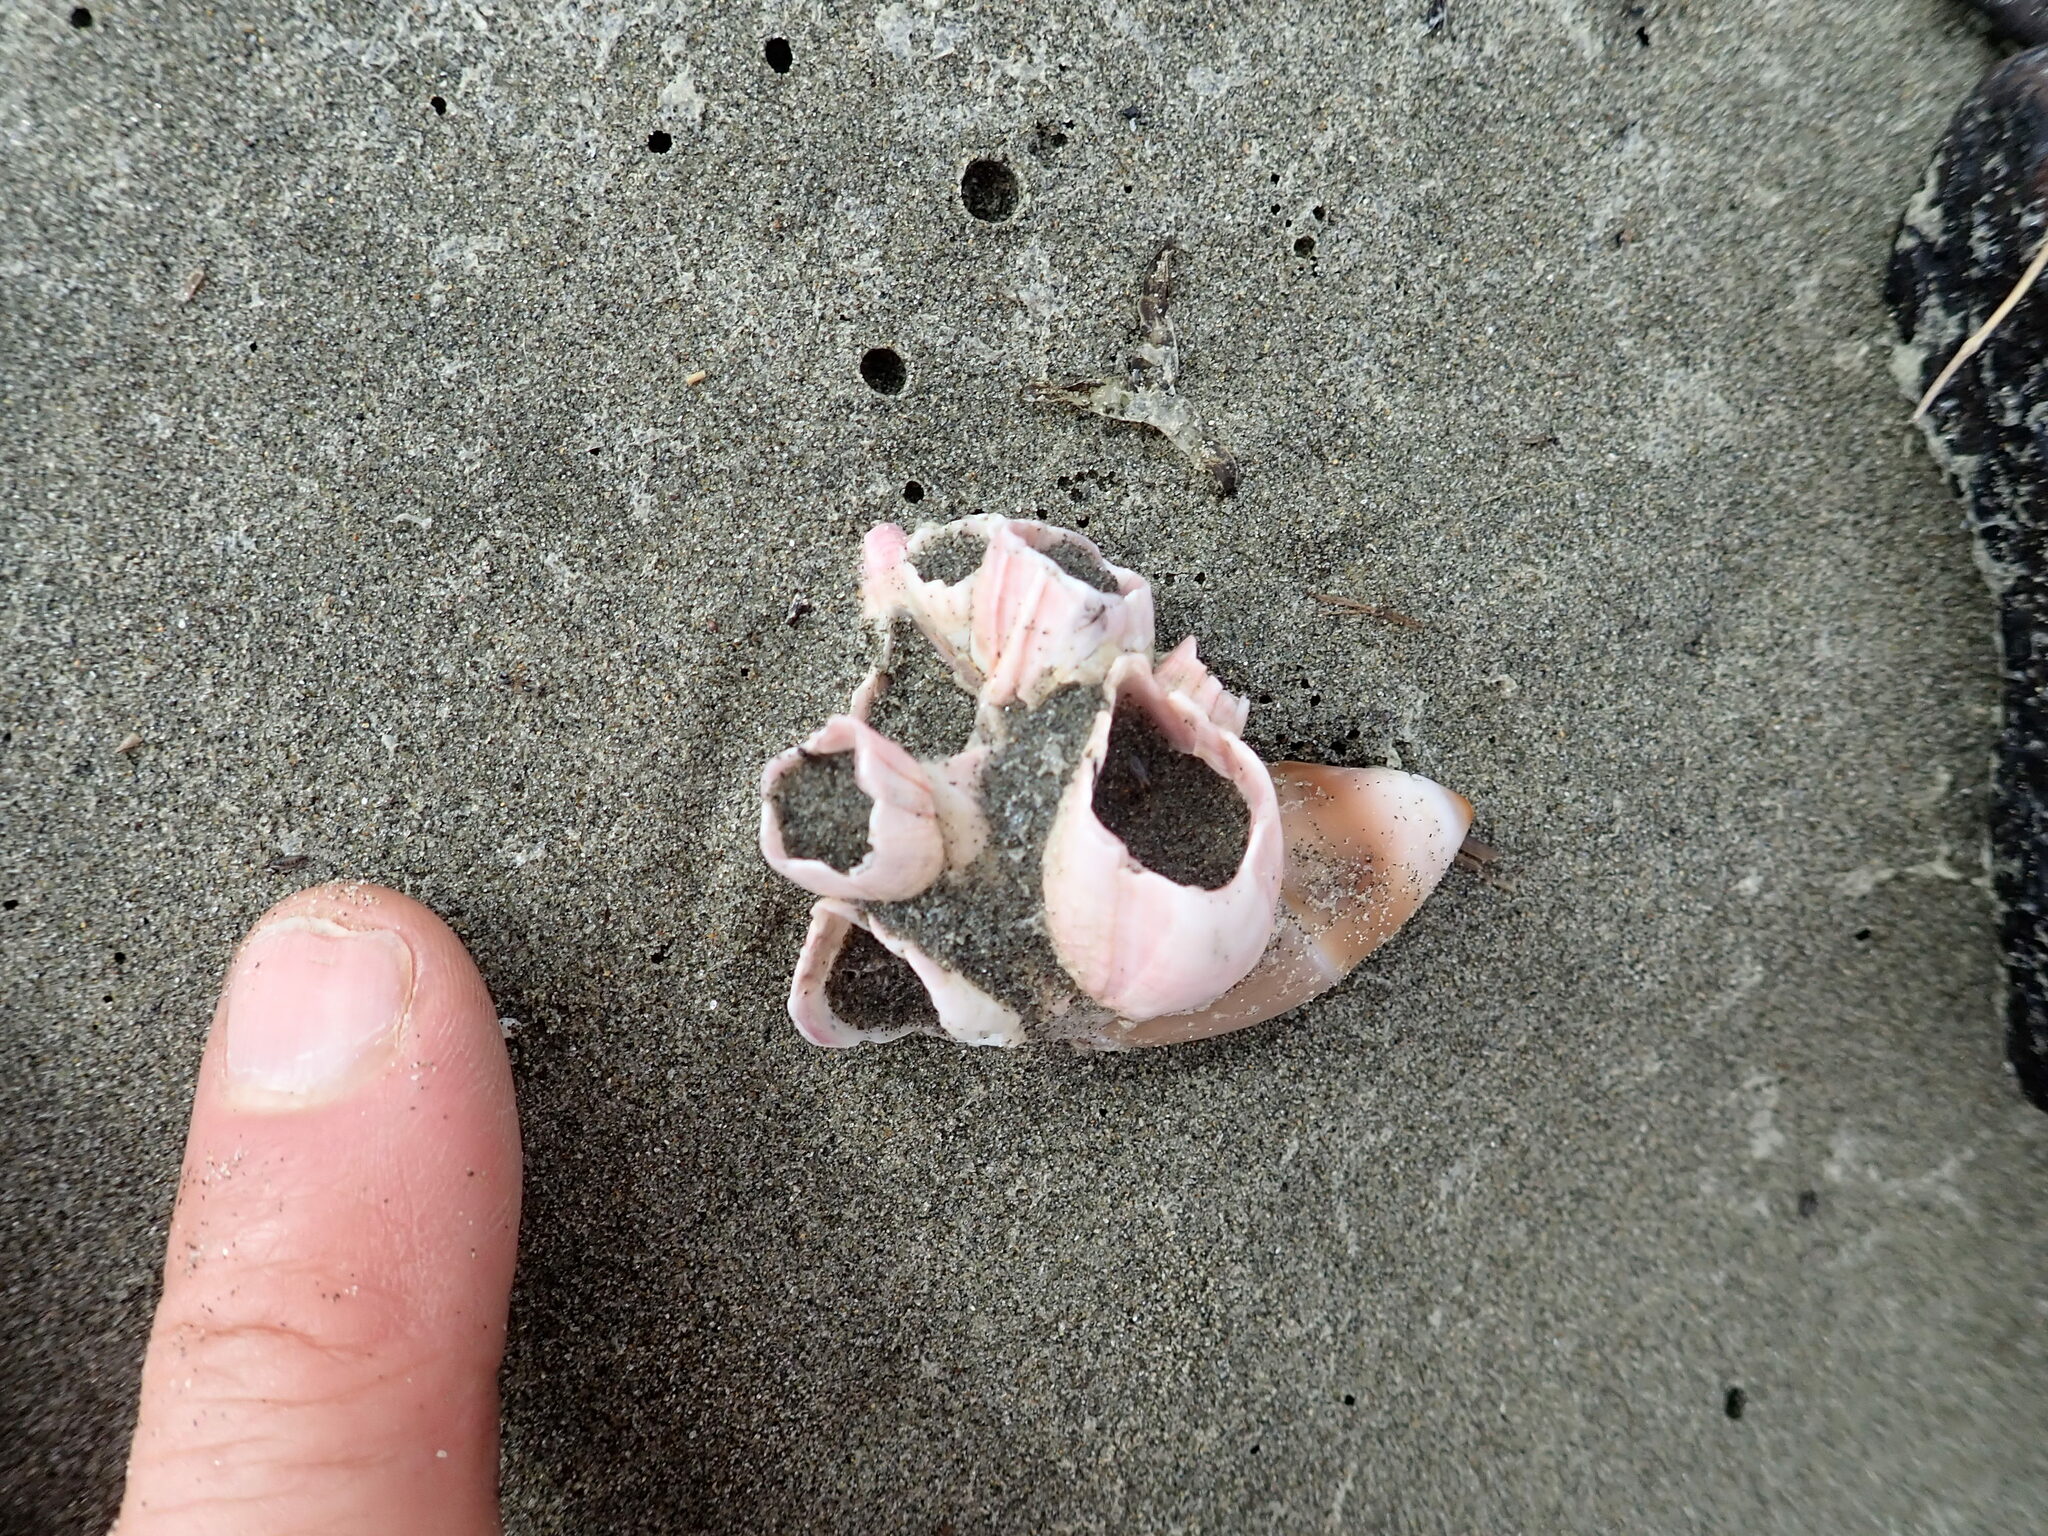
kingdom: Animalia
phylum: Arthropoda
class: Maxillopoda
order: Sessilia
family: Balanidae
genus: Notomegabalanus
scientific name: Notomegabalanus decorus
